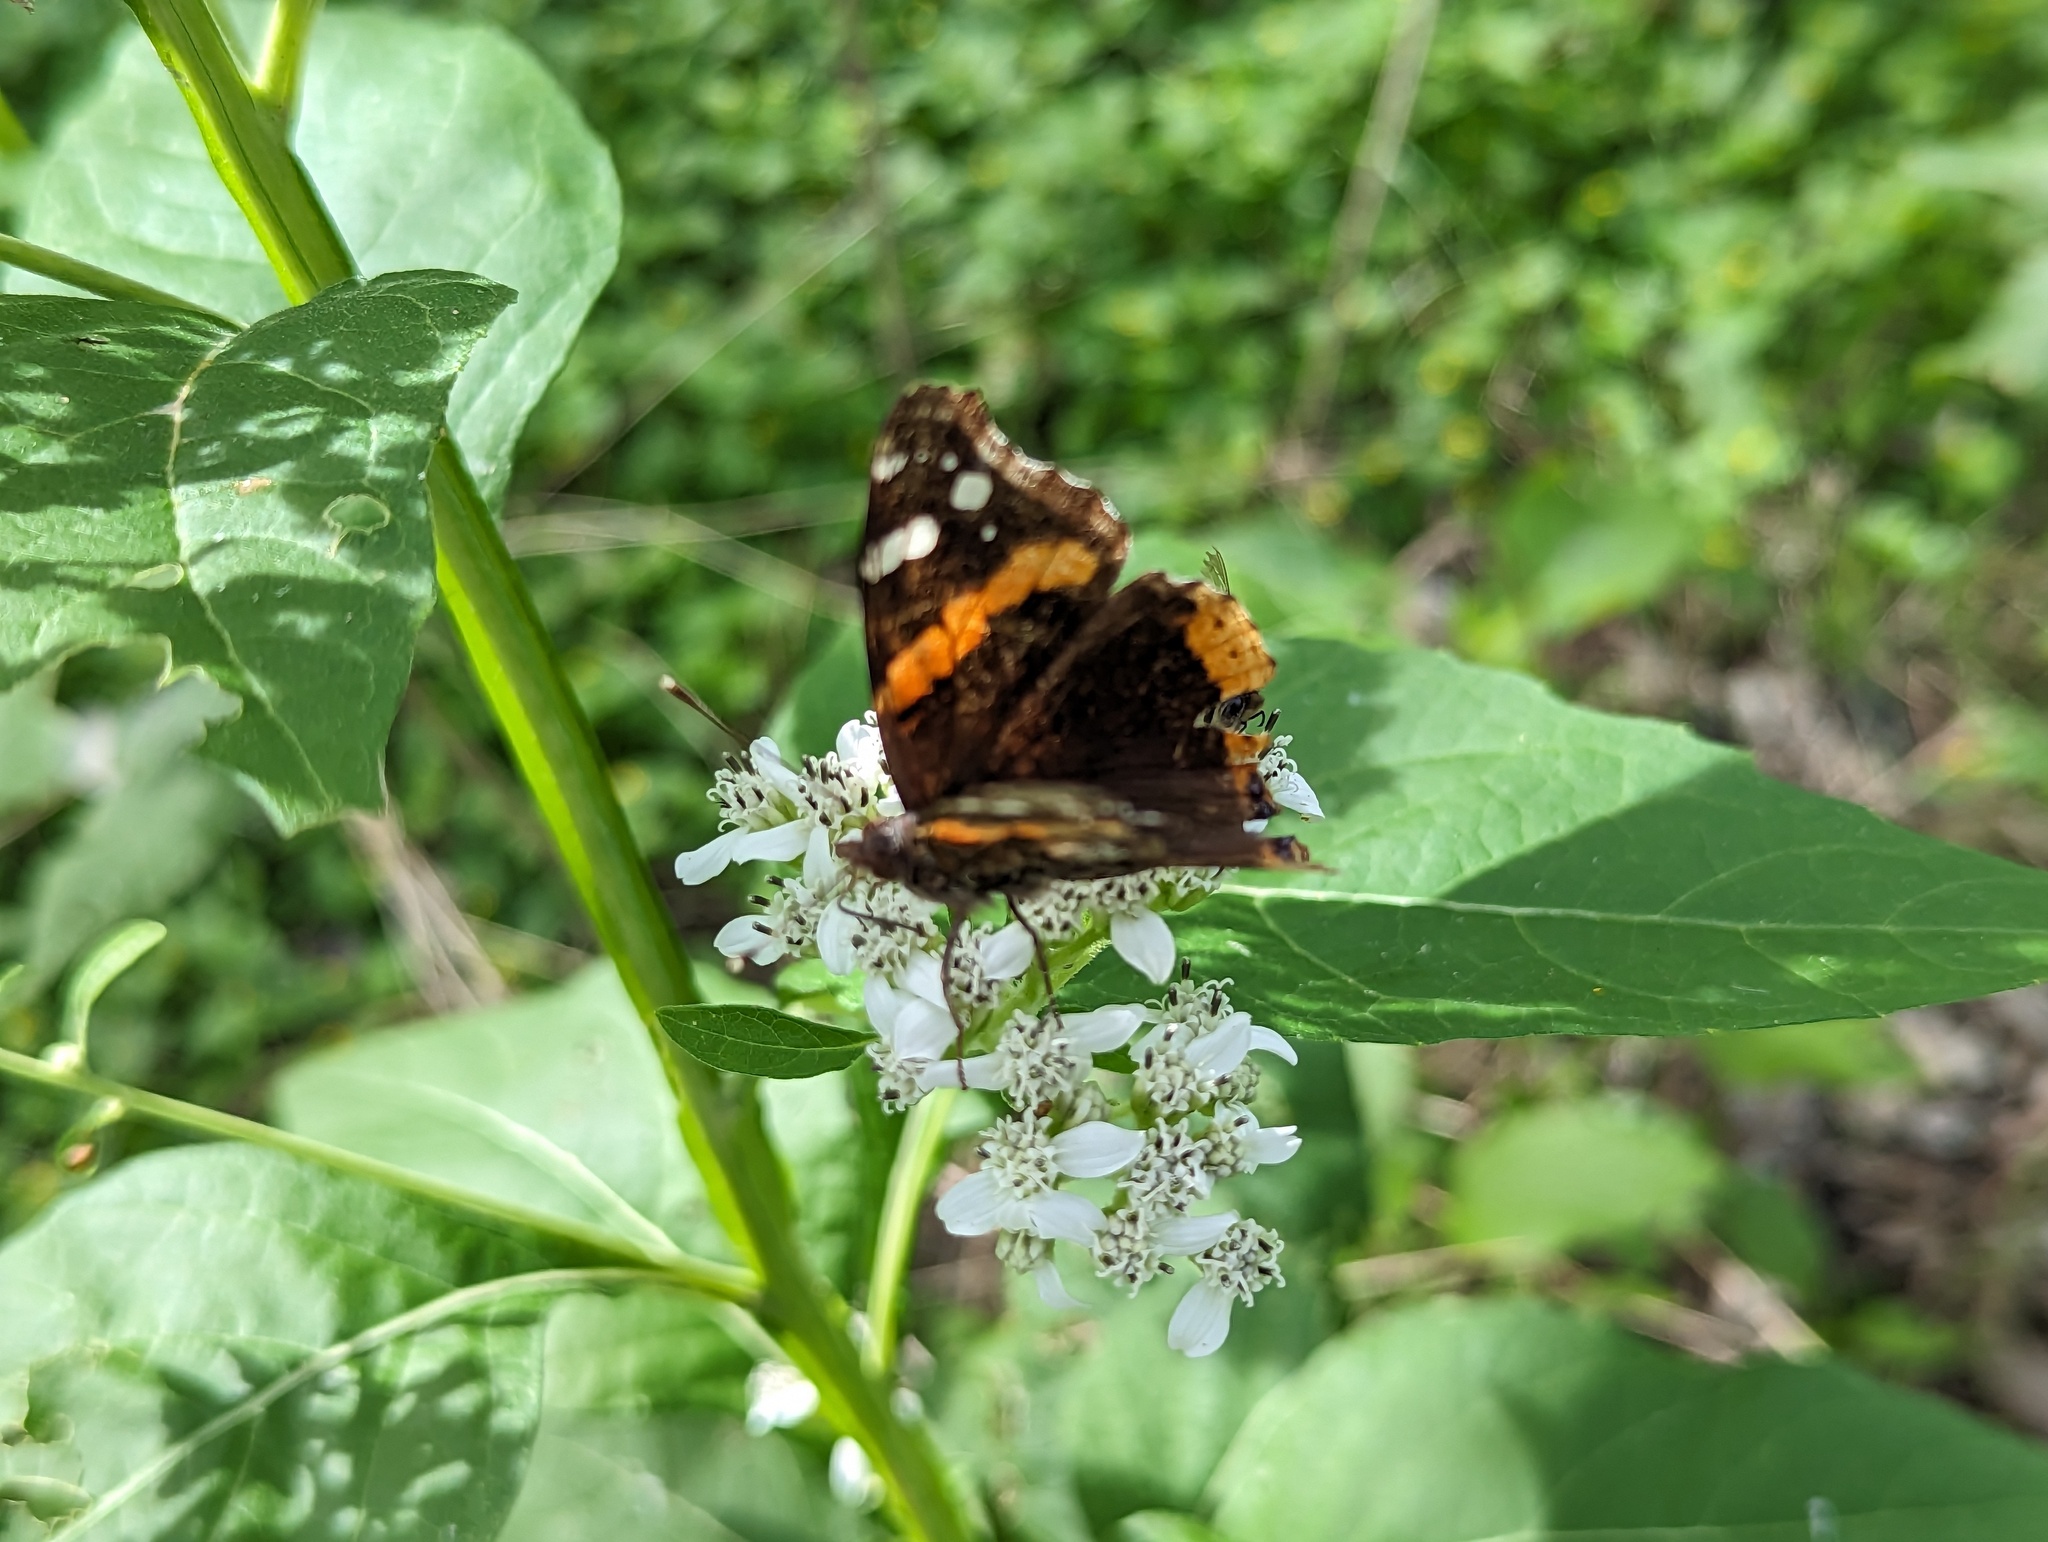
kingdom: Animalia
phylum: Arthropoda
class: Insecta
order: Lepidoptera
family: Nymphalidae
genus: Vanessa
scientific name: Vanessa atalanta
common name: Red admiral
